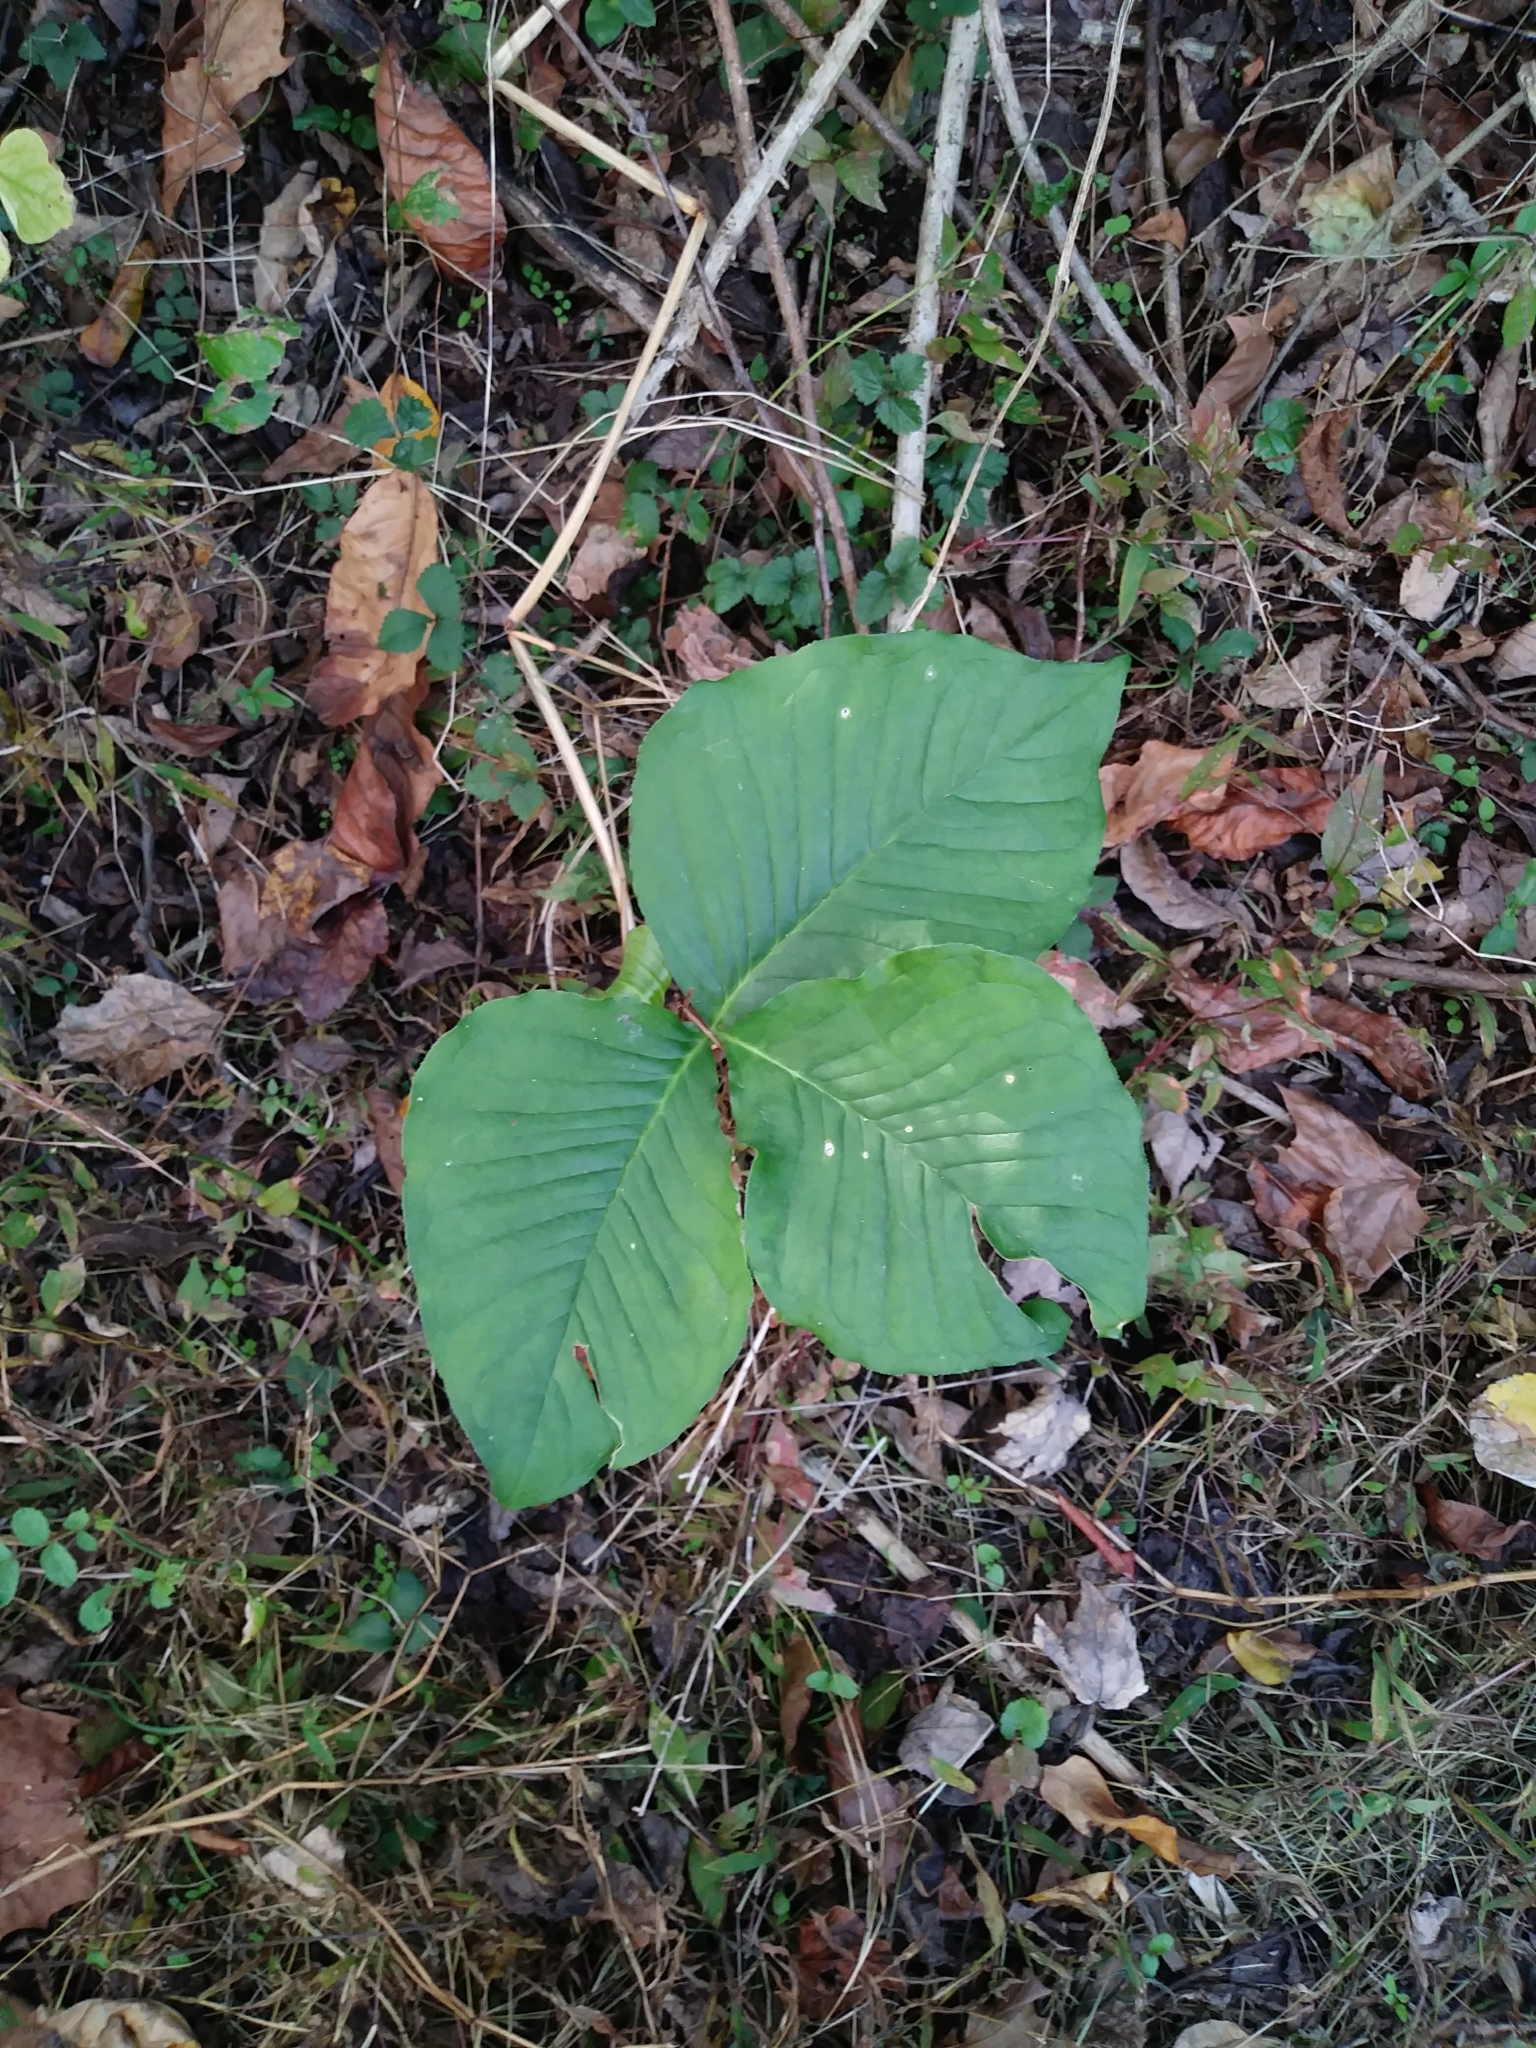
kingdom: Plantae
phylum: Tracheophyta
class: Liliopsida
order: Alismatales
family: Araceae
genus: Arisaema
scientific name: Arisaema triphyllum
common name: Jack-in-the-pulpit
